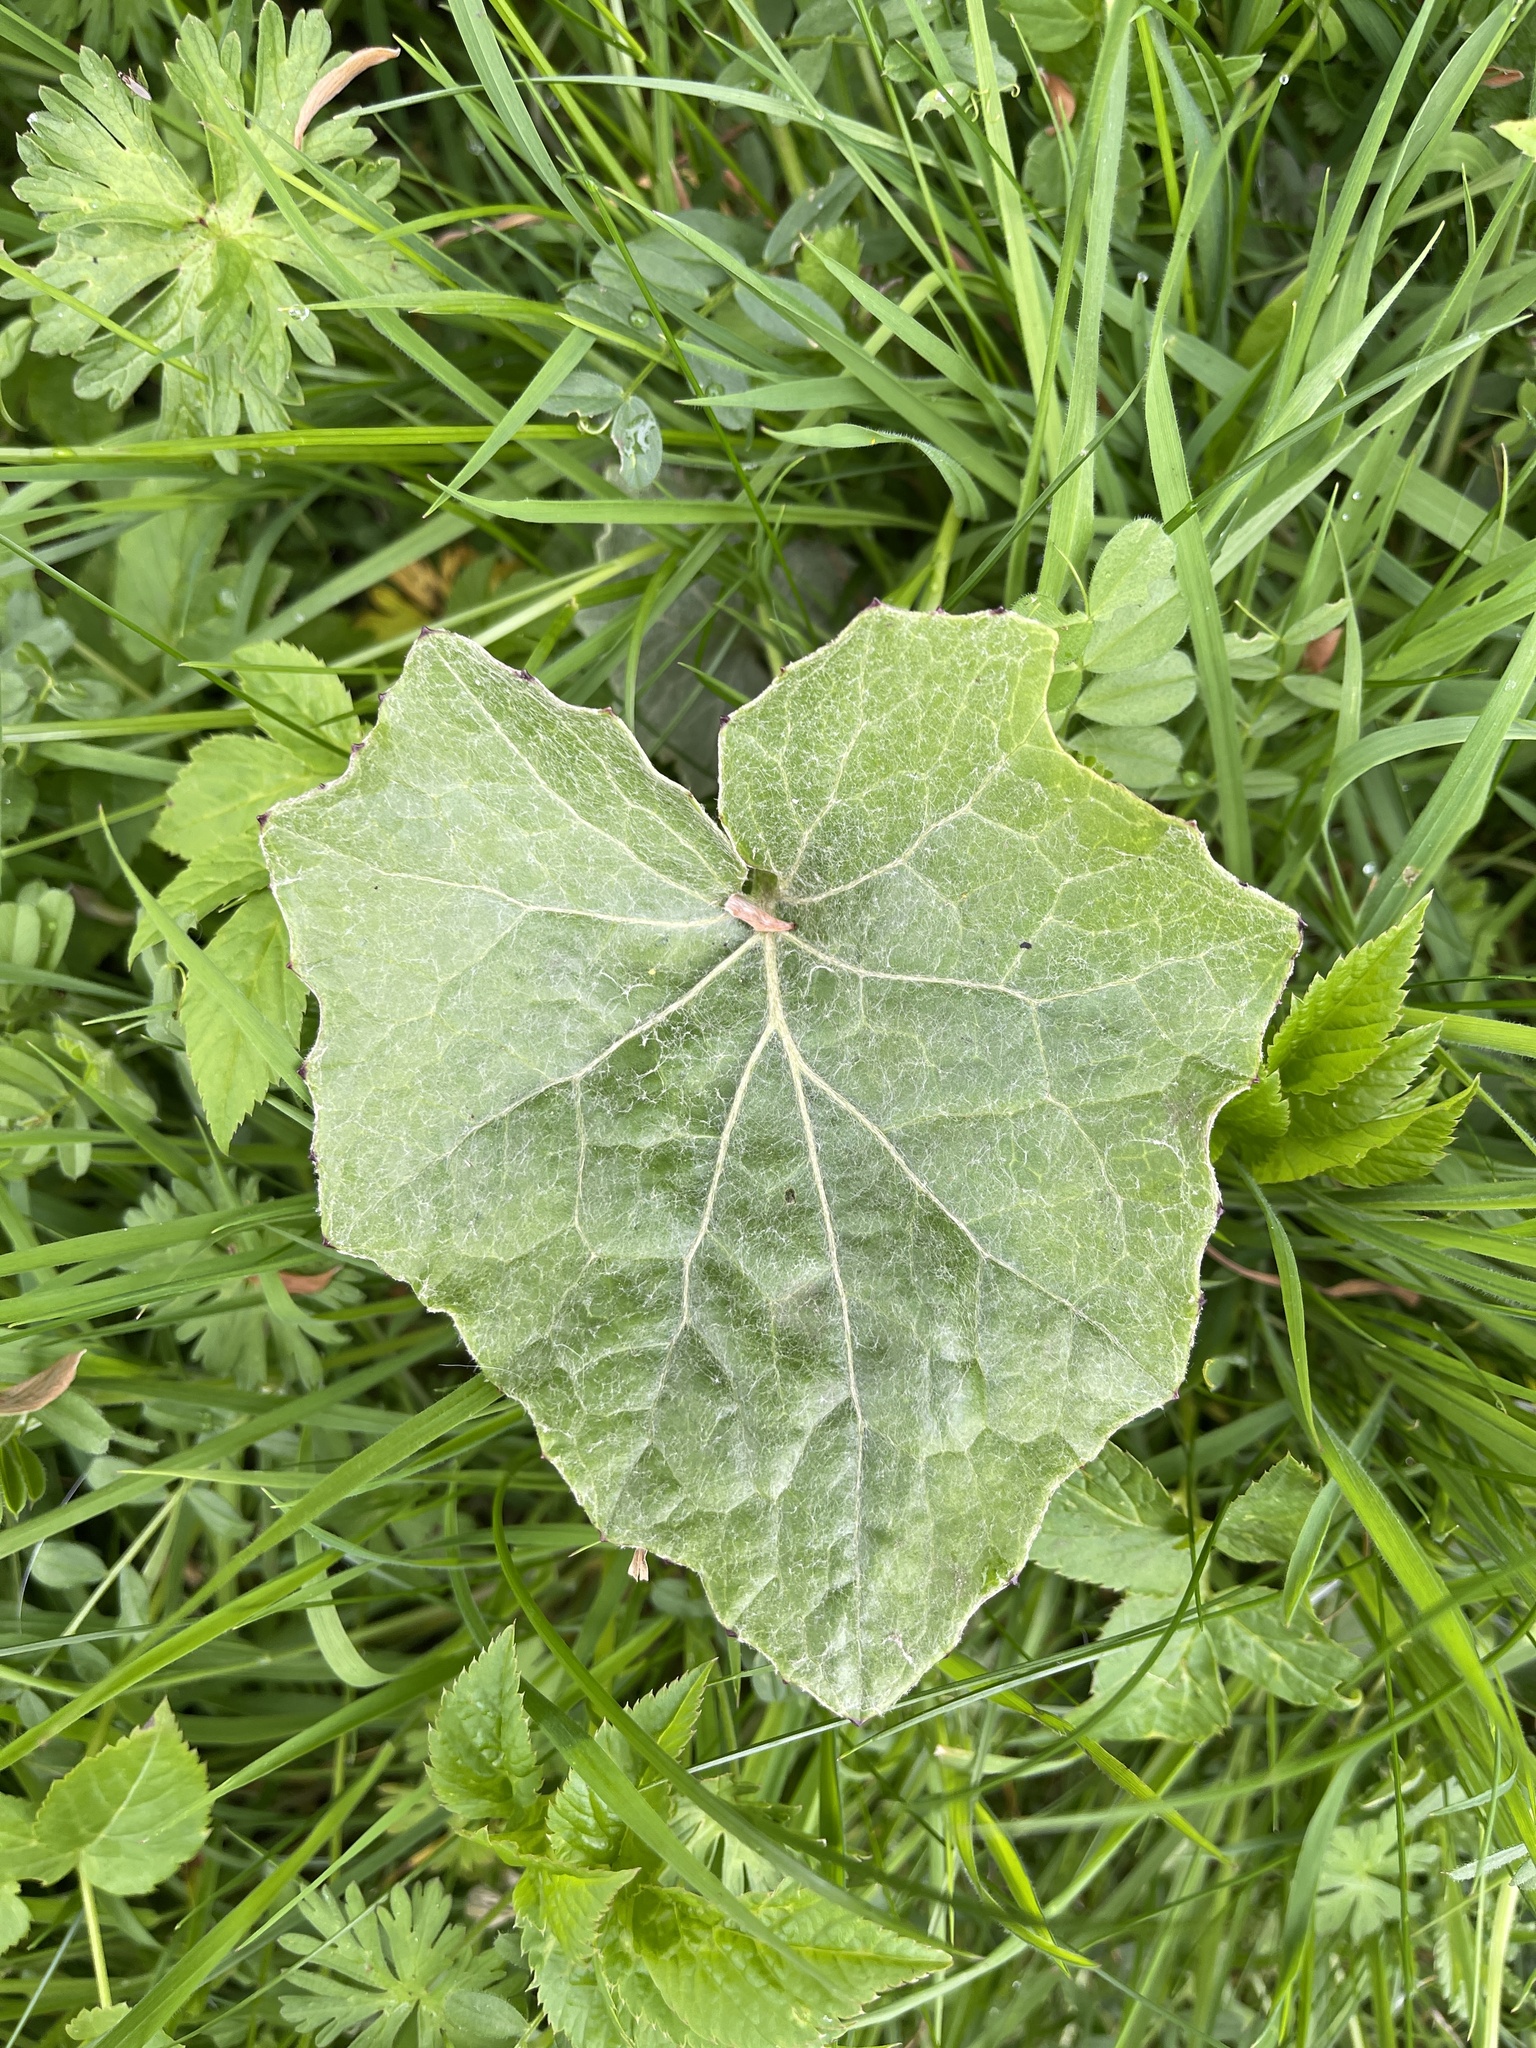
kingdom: Plantae
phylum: Tracheophyta
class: Magnoliopsida
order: Asterales
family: Asteraceae
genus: Tussilago
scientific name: Tussilago farfara
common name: Coltsfoot
